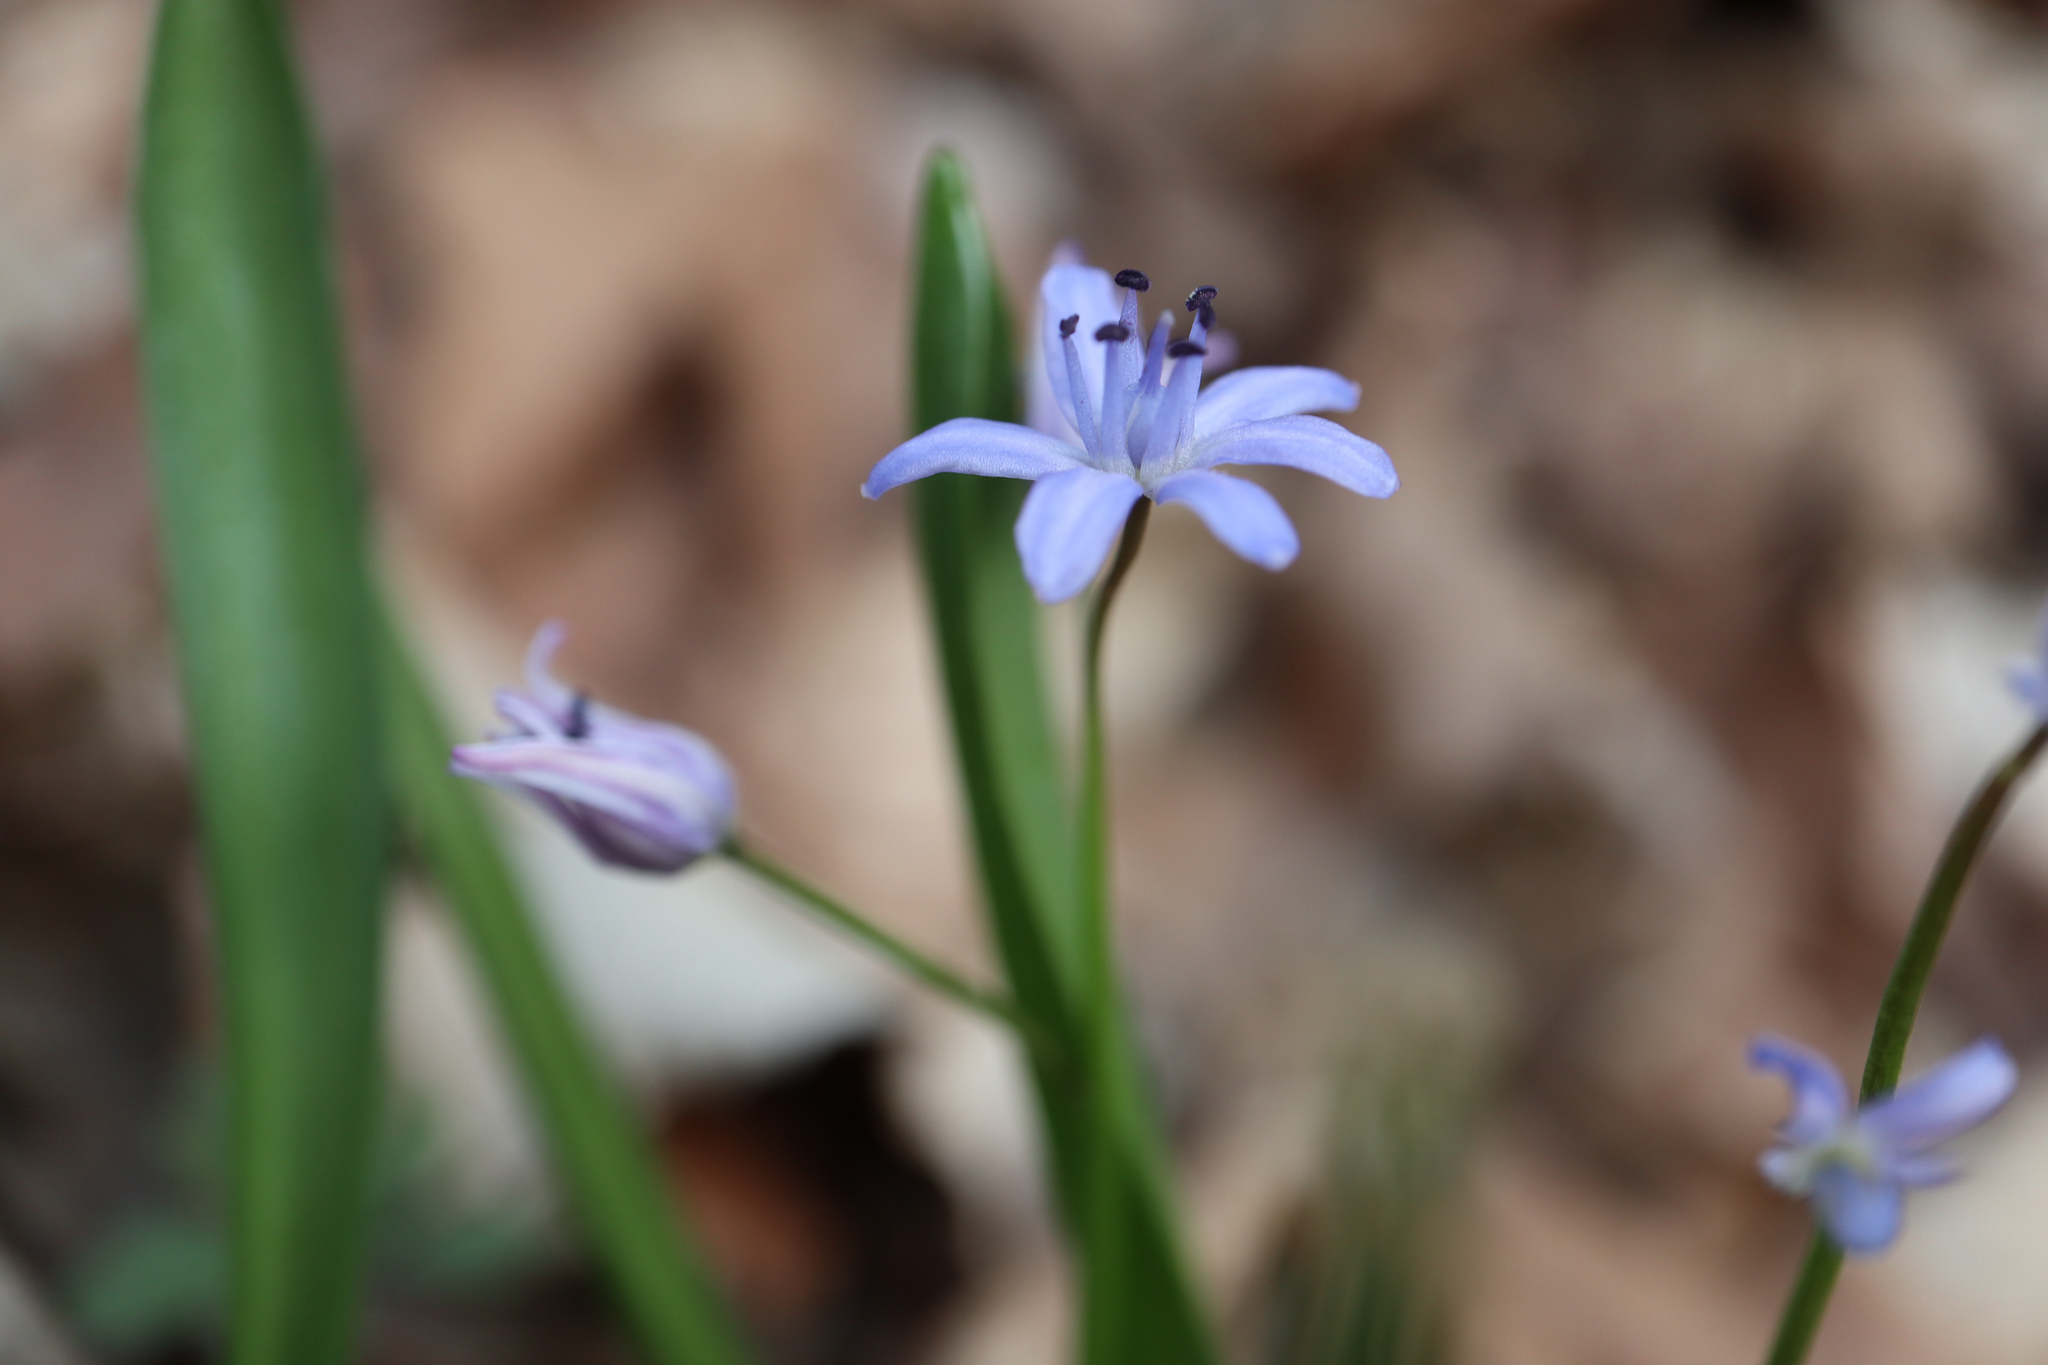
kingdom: Plantae
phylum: Tracheophyta
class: Liliopsida
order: Asparagales
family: Asparagaceae
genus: Scilla
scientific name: Scilla bifolia
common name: Alpine squill
